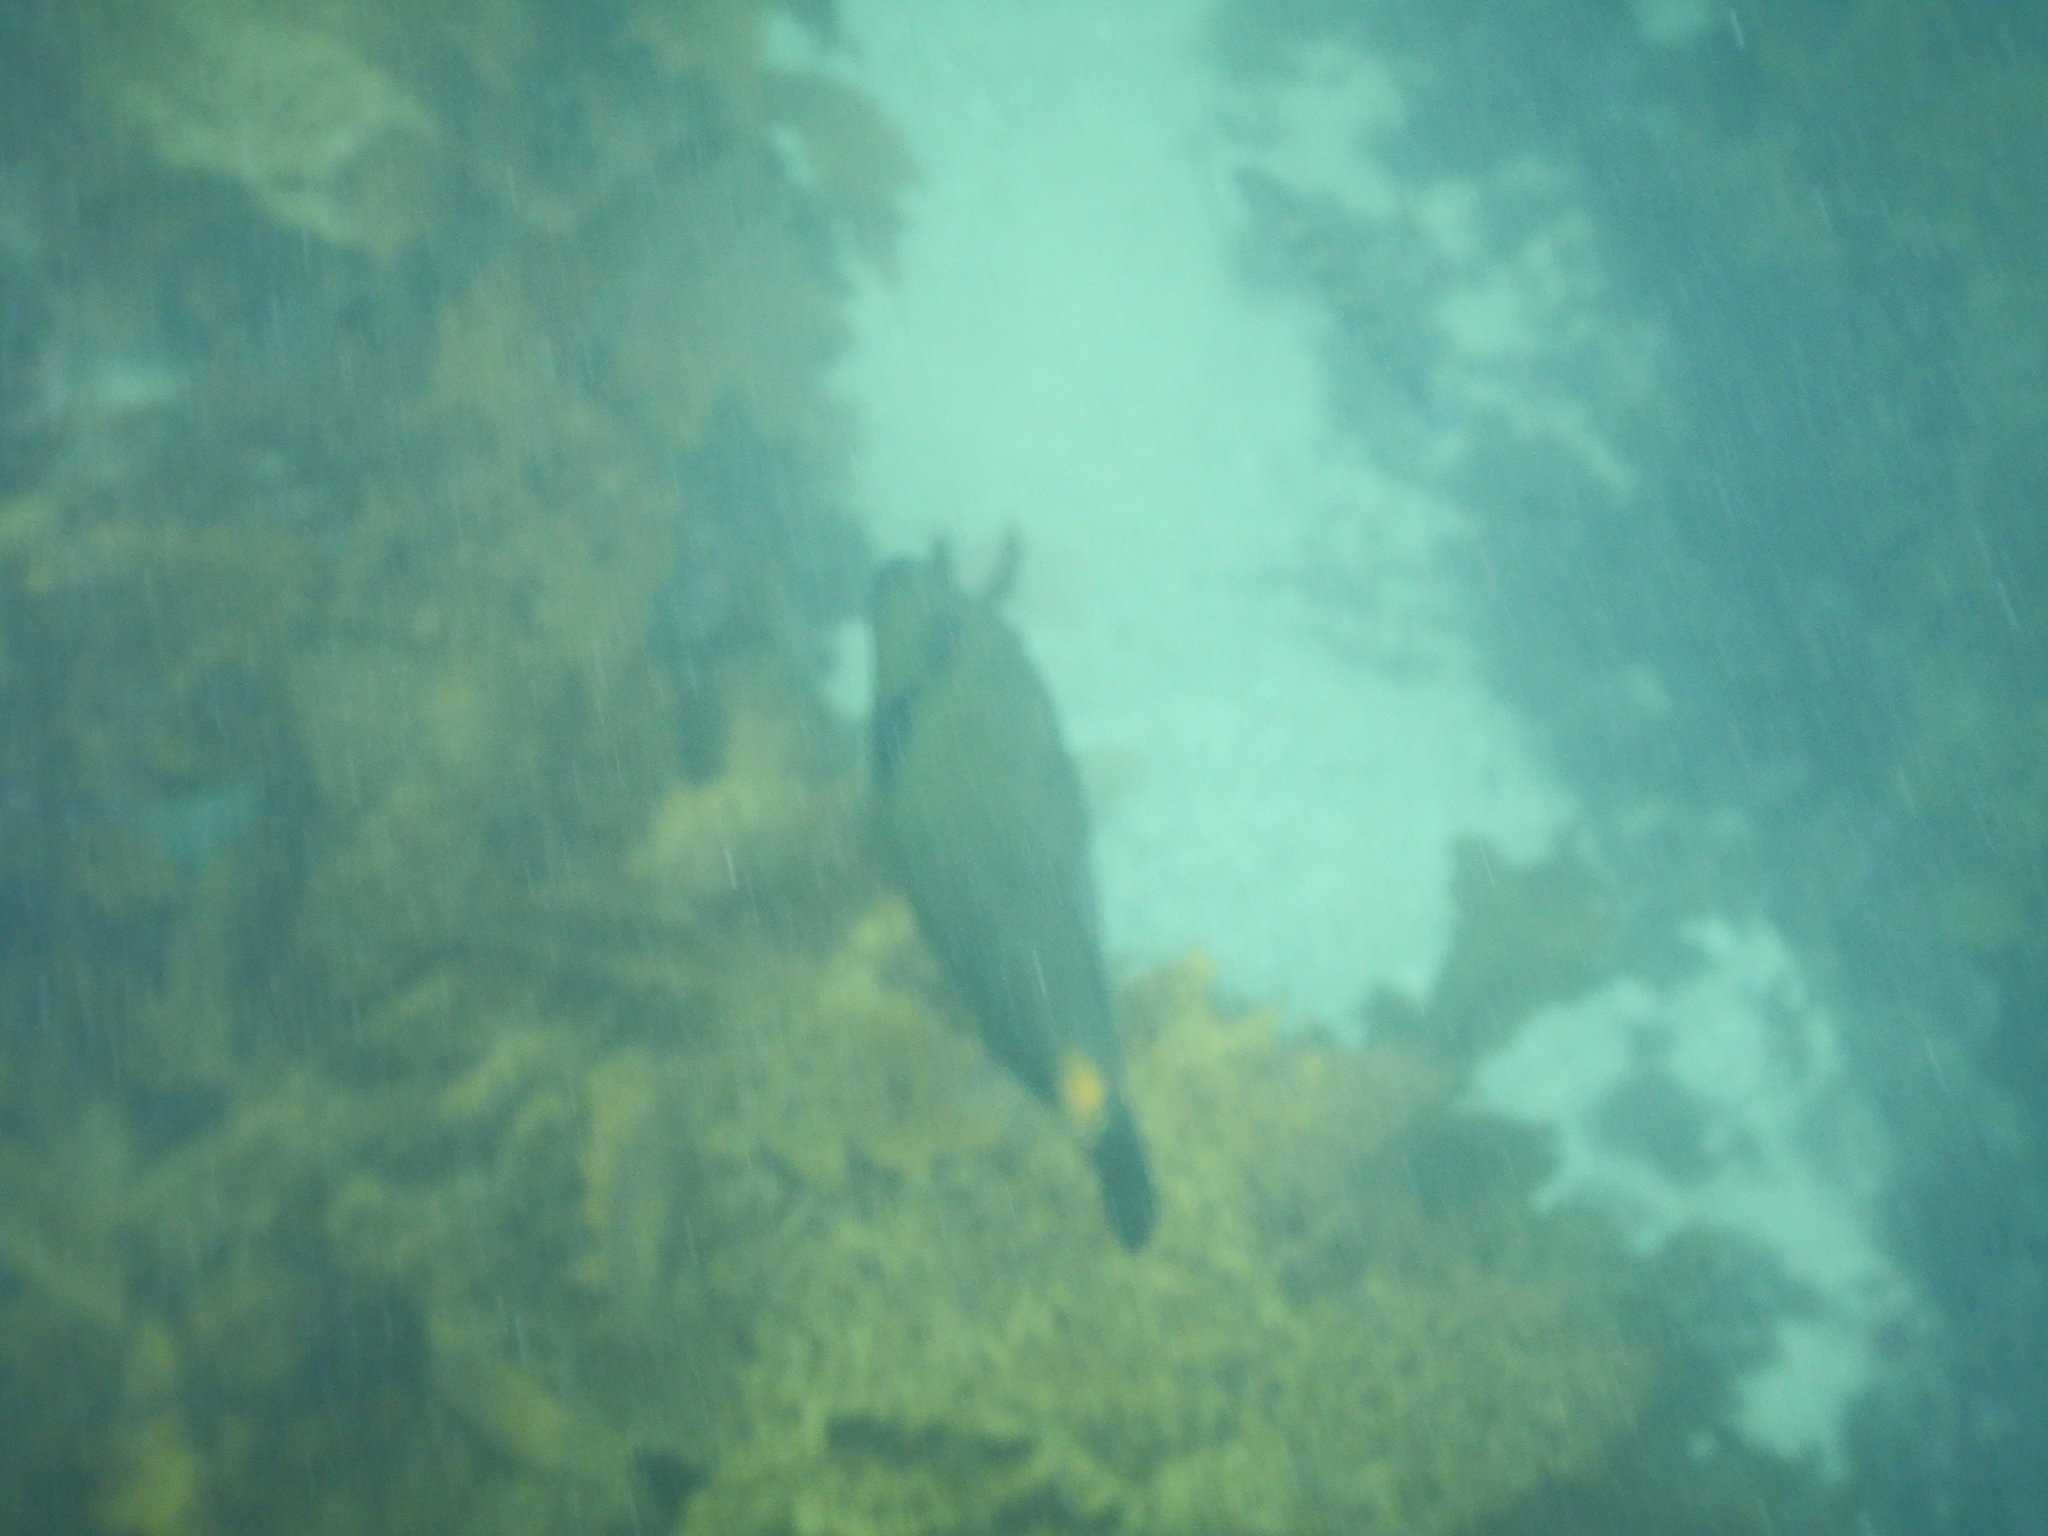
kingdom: Animalia
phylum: Chordata
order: Tetraodontiformes
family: Monacanthidae
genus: Meuschenia
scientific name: Meuschenia flavolineata
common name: Yellowstriped leatherjacket
